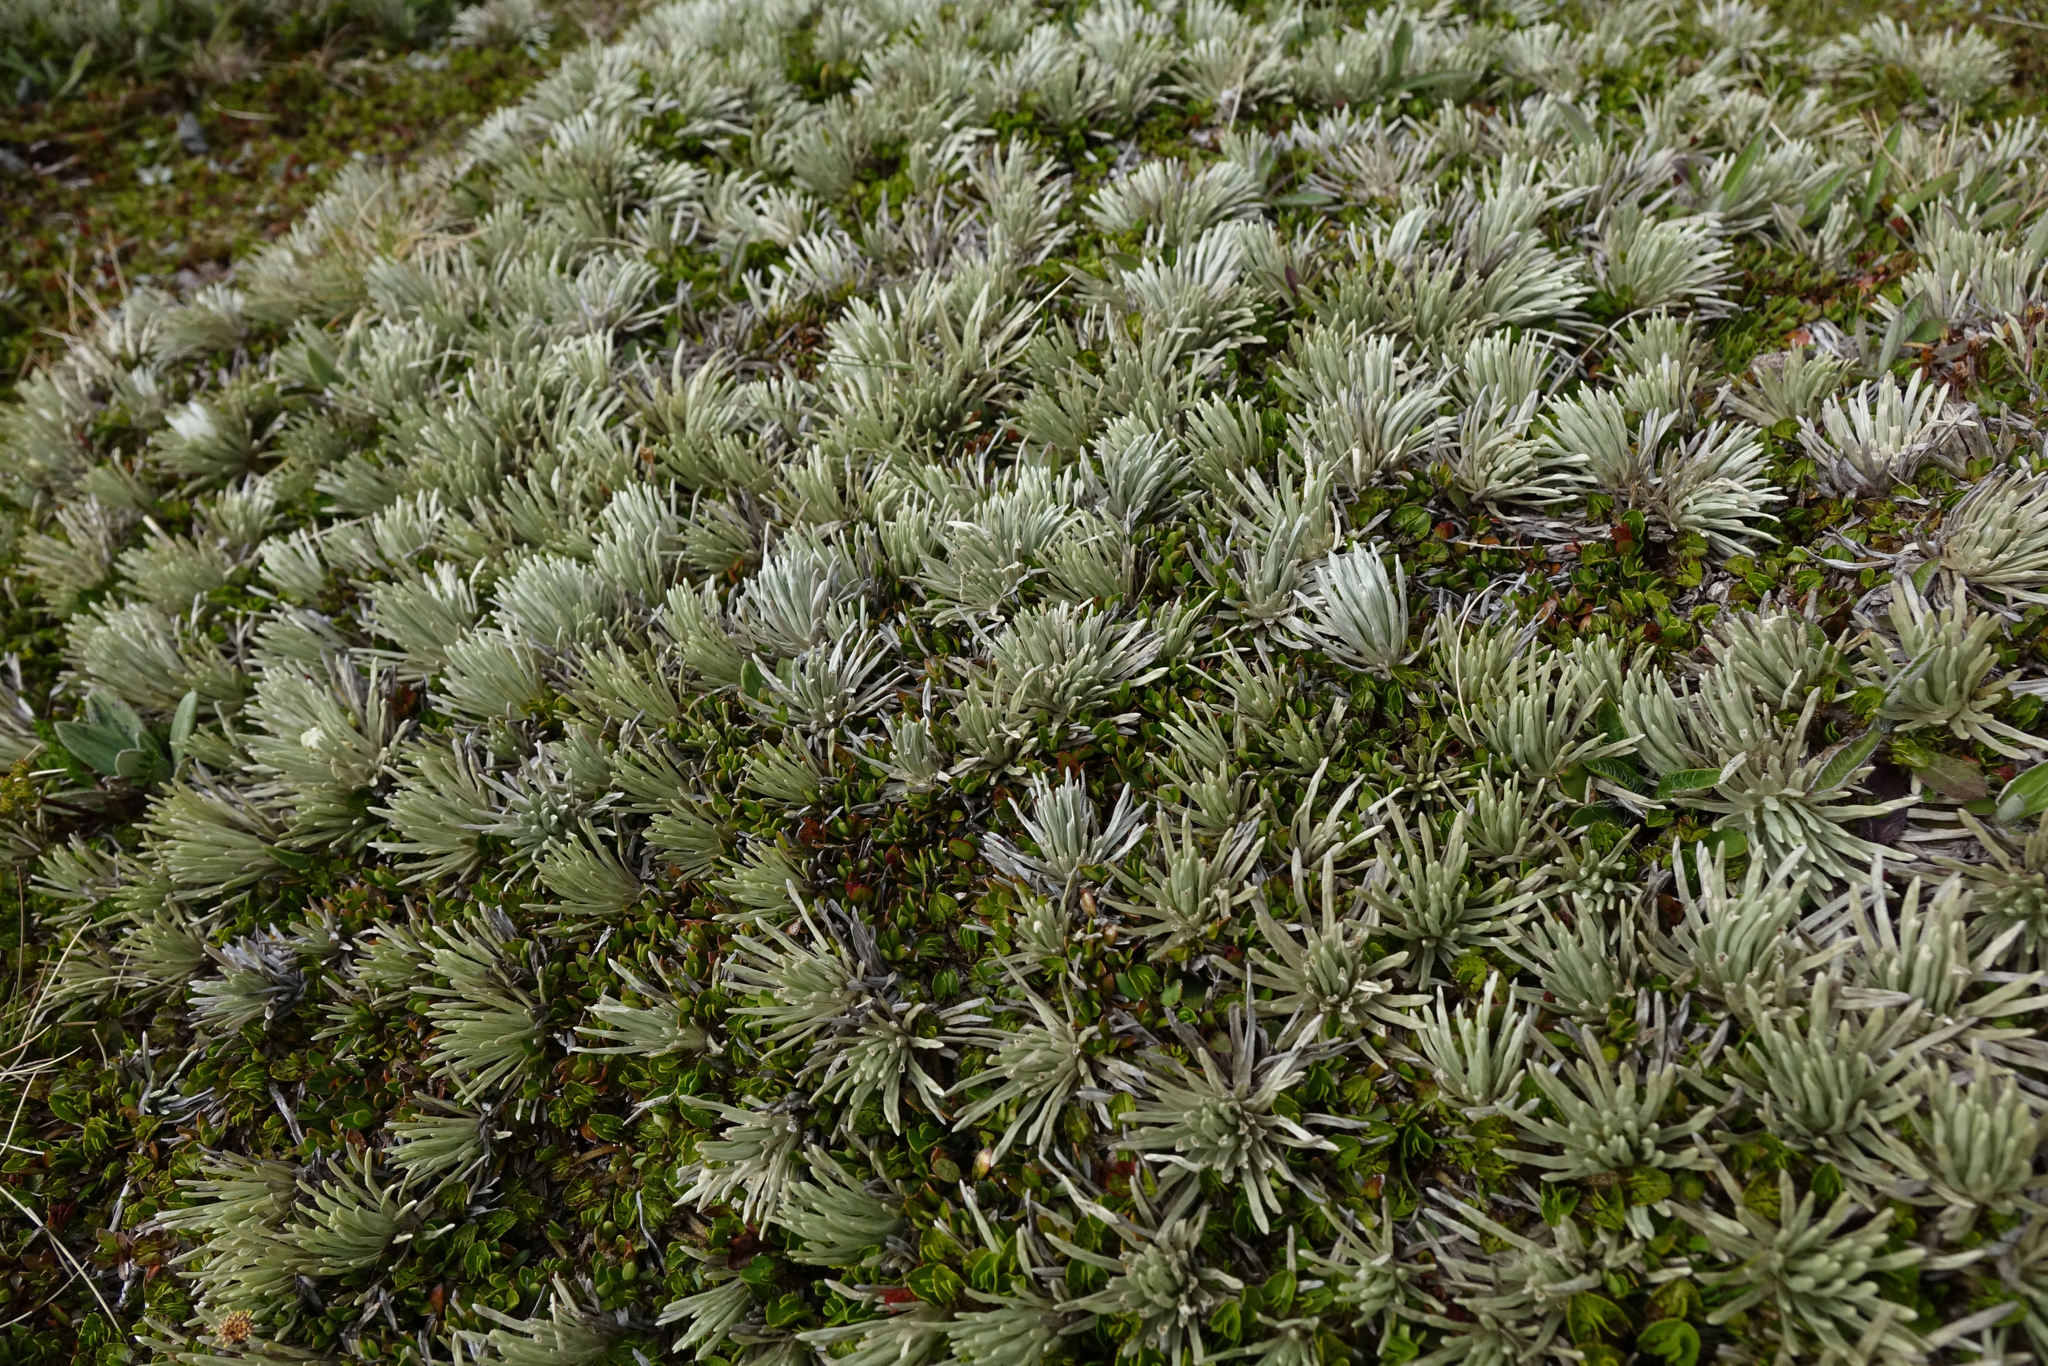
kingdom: Plantae
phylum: Tracheophyta
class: Magnoliopsida
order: Asterales
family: Asteraceae
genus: Celmisia
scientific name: Celmisia sessiliflora
